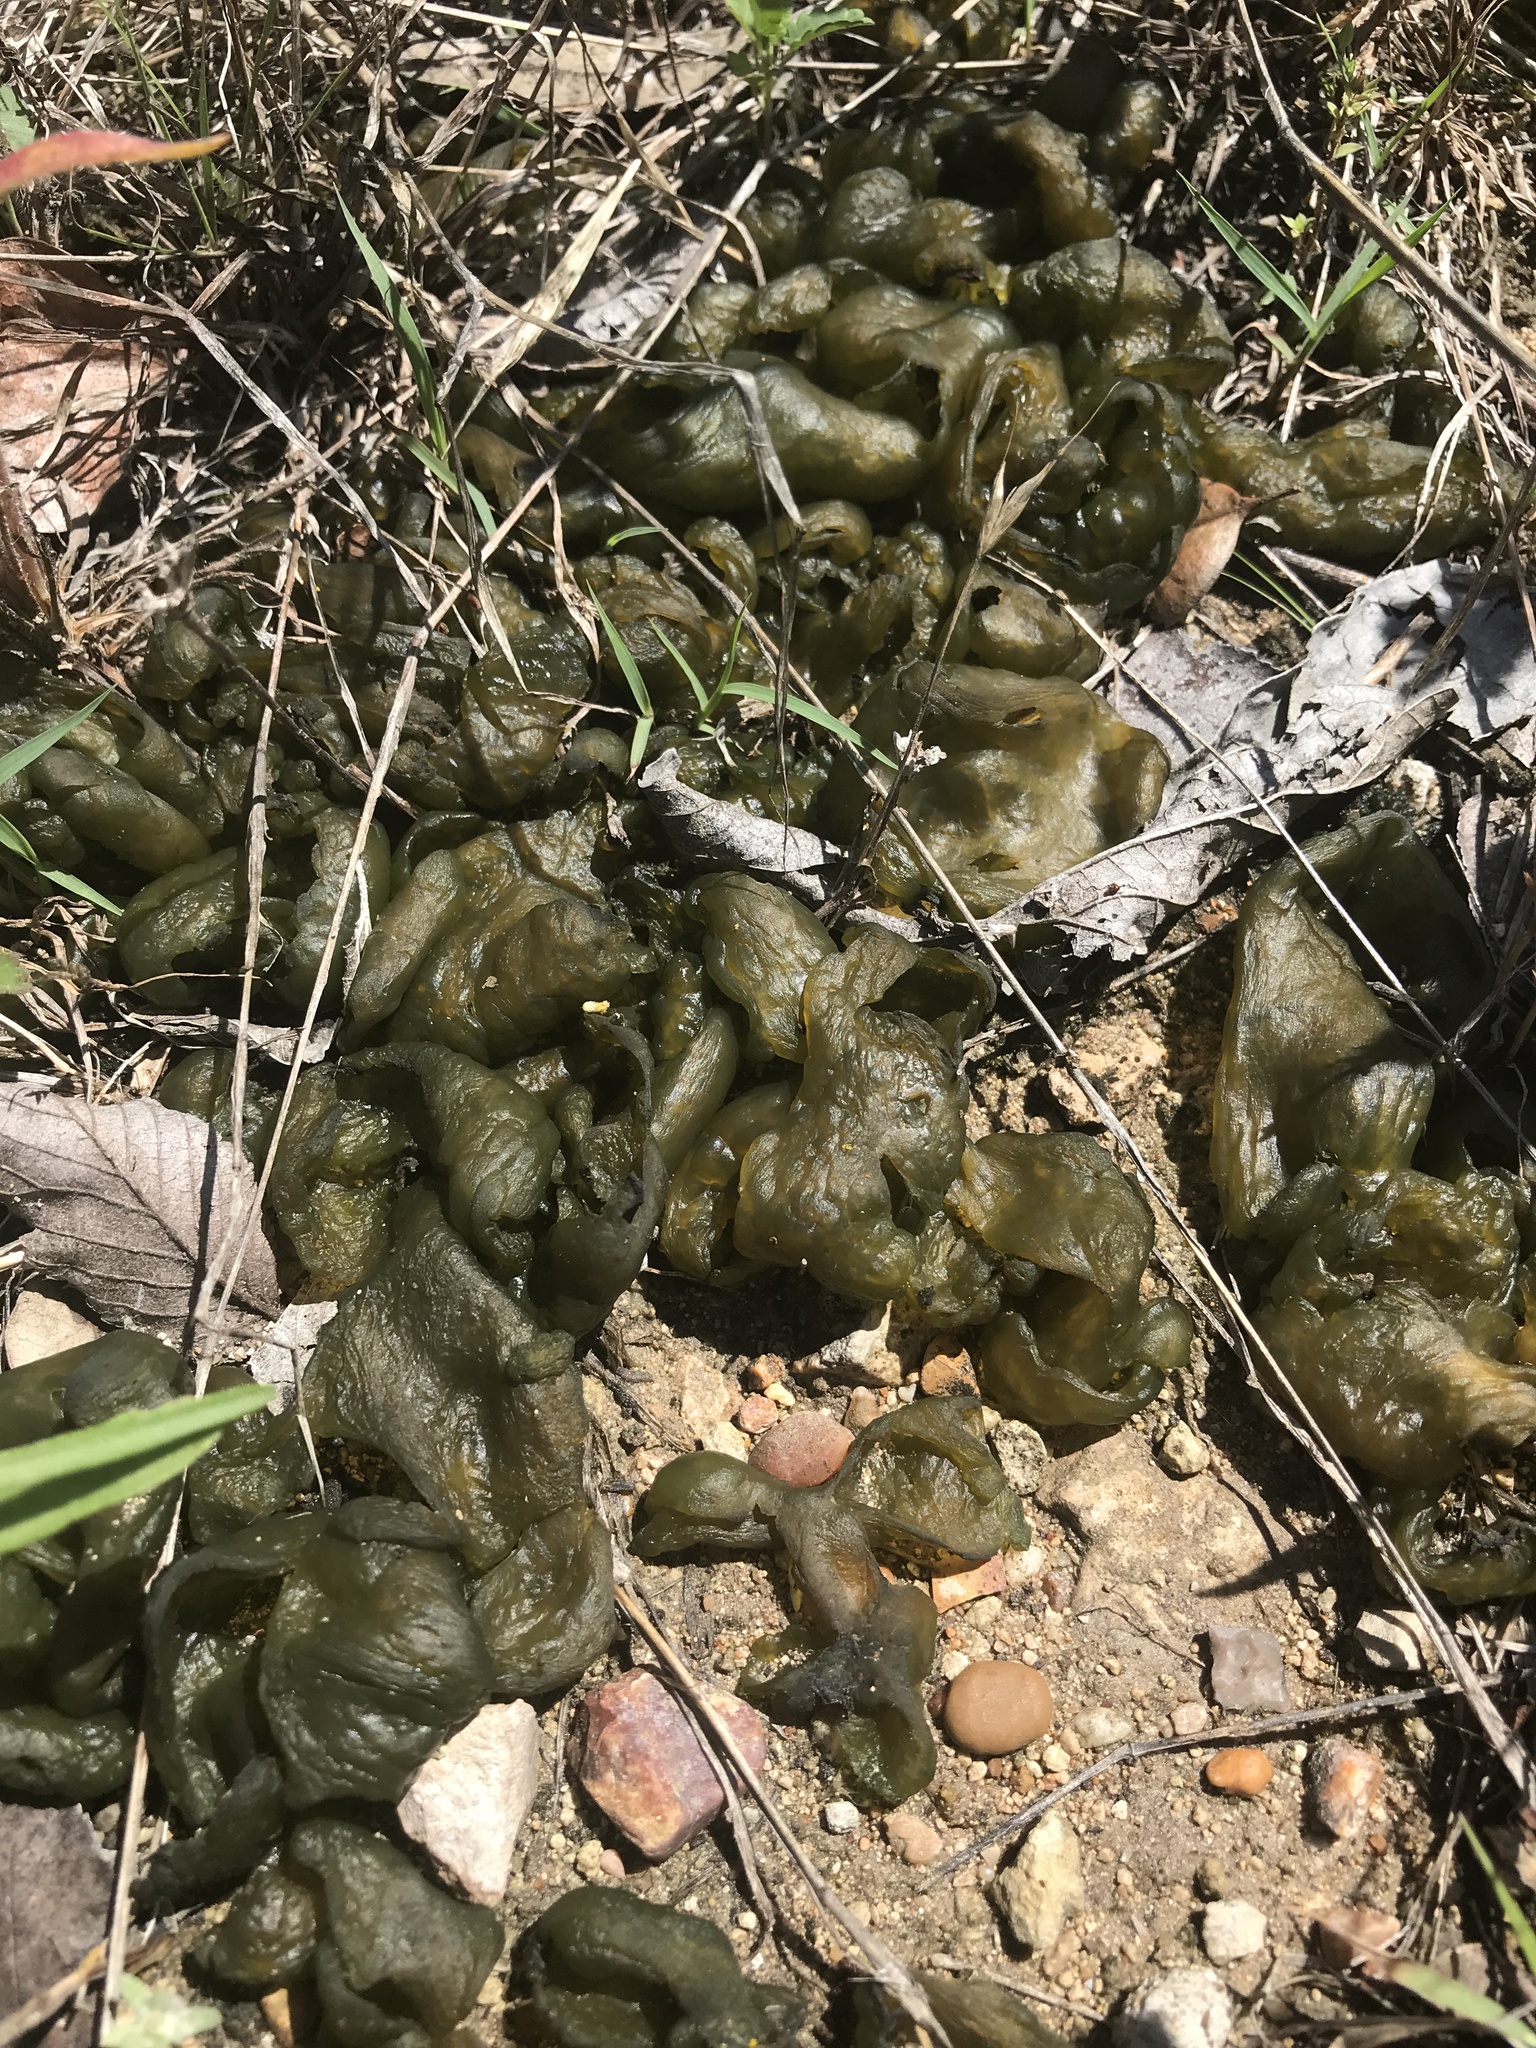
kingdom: Bacteria
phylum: Cyanobacteria
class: Cyanobacteriia
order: Cyanobacteriales
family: Nostocaceae
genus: Nostoc
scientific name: Nostoc commune
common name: Star jelly
